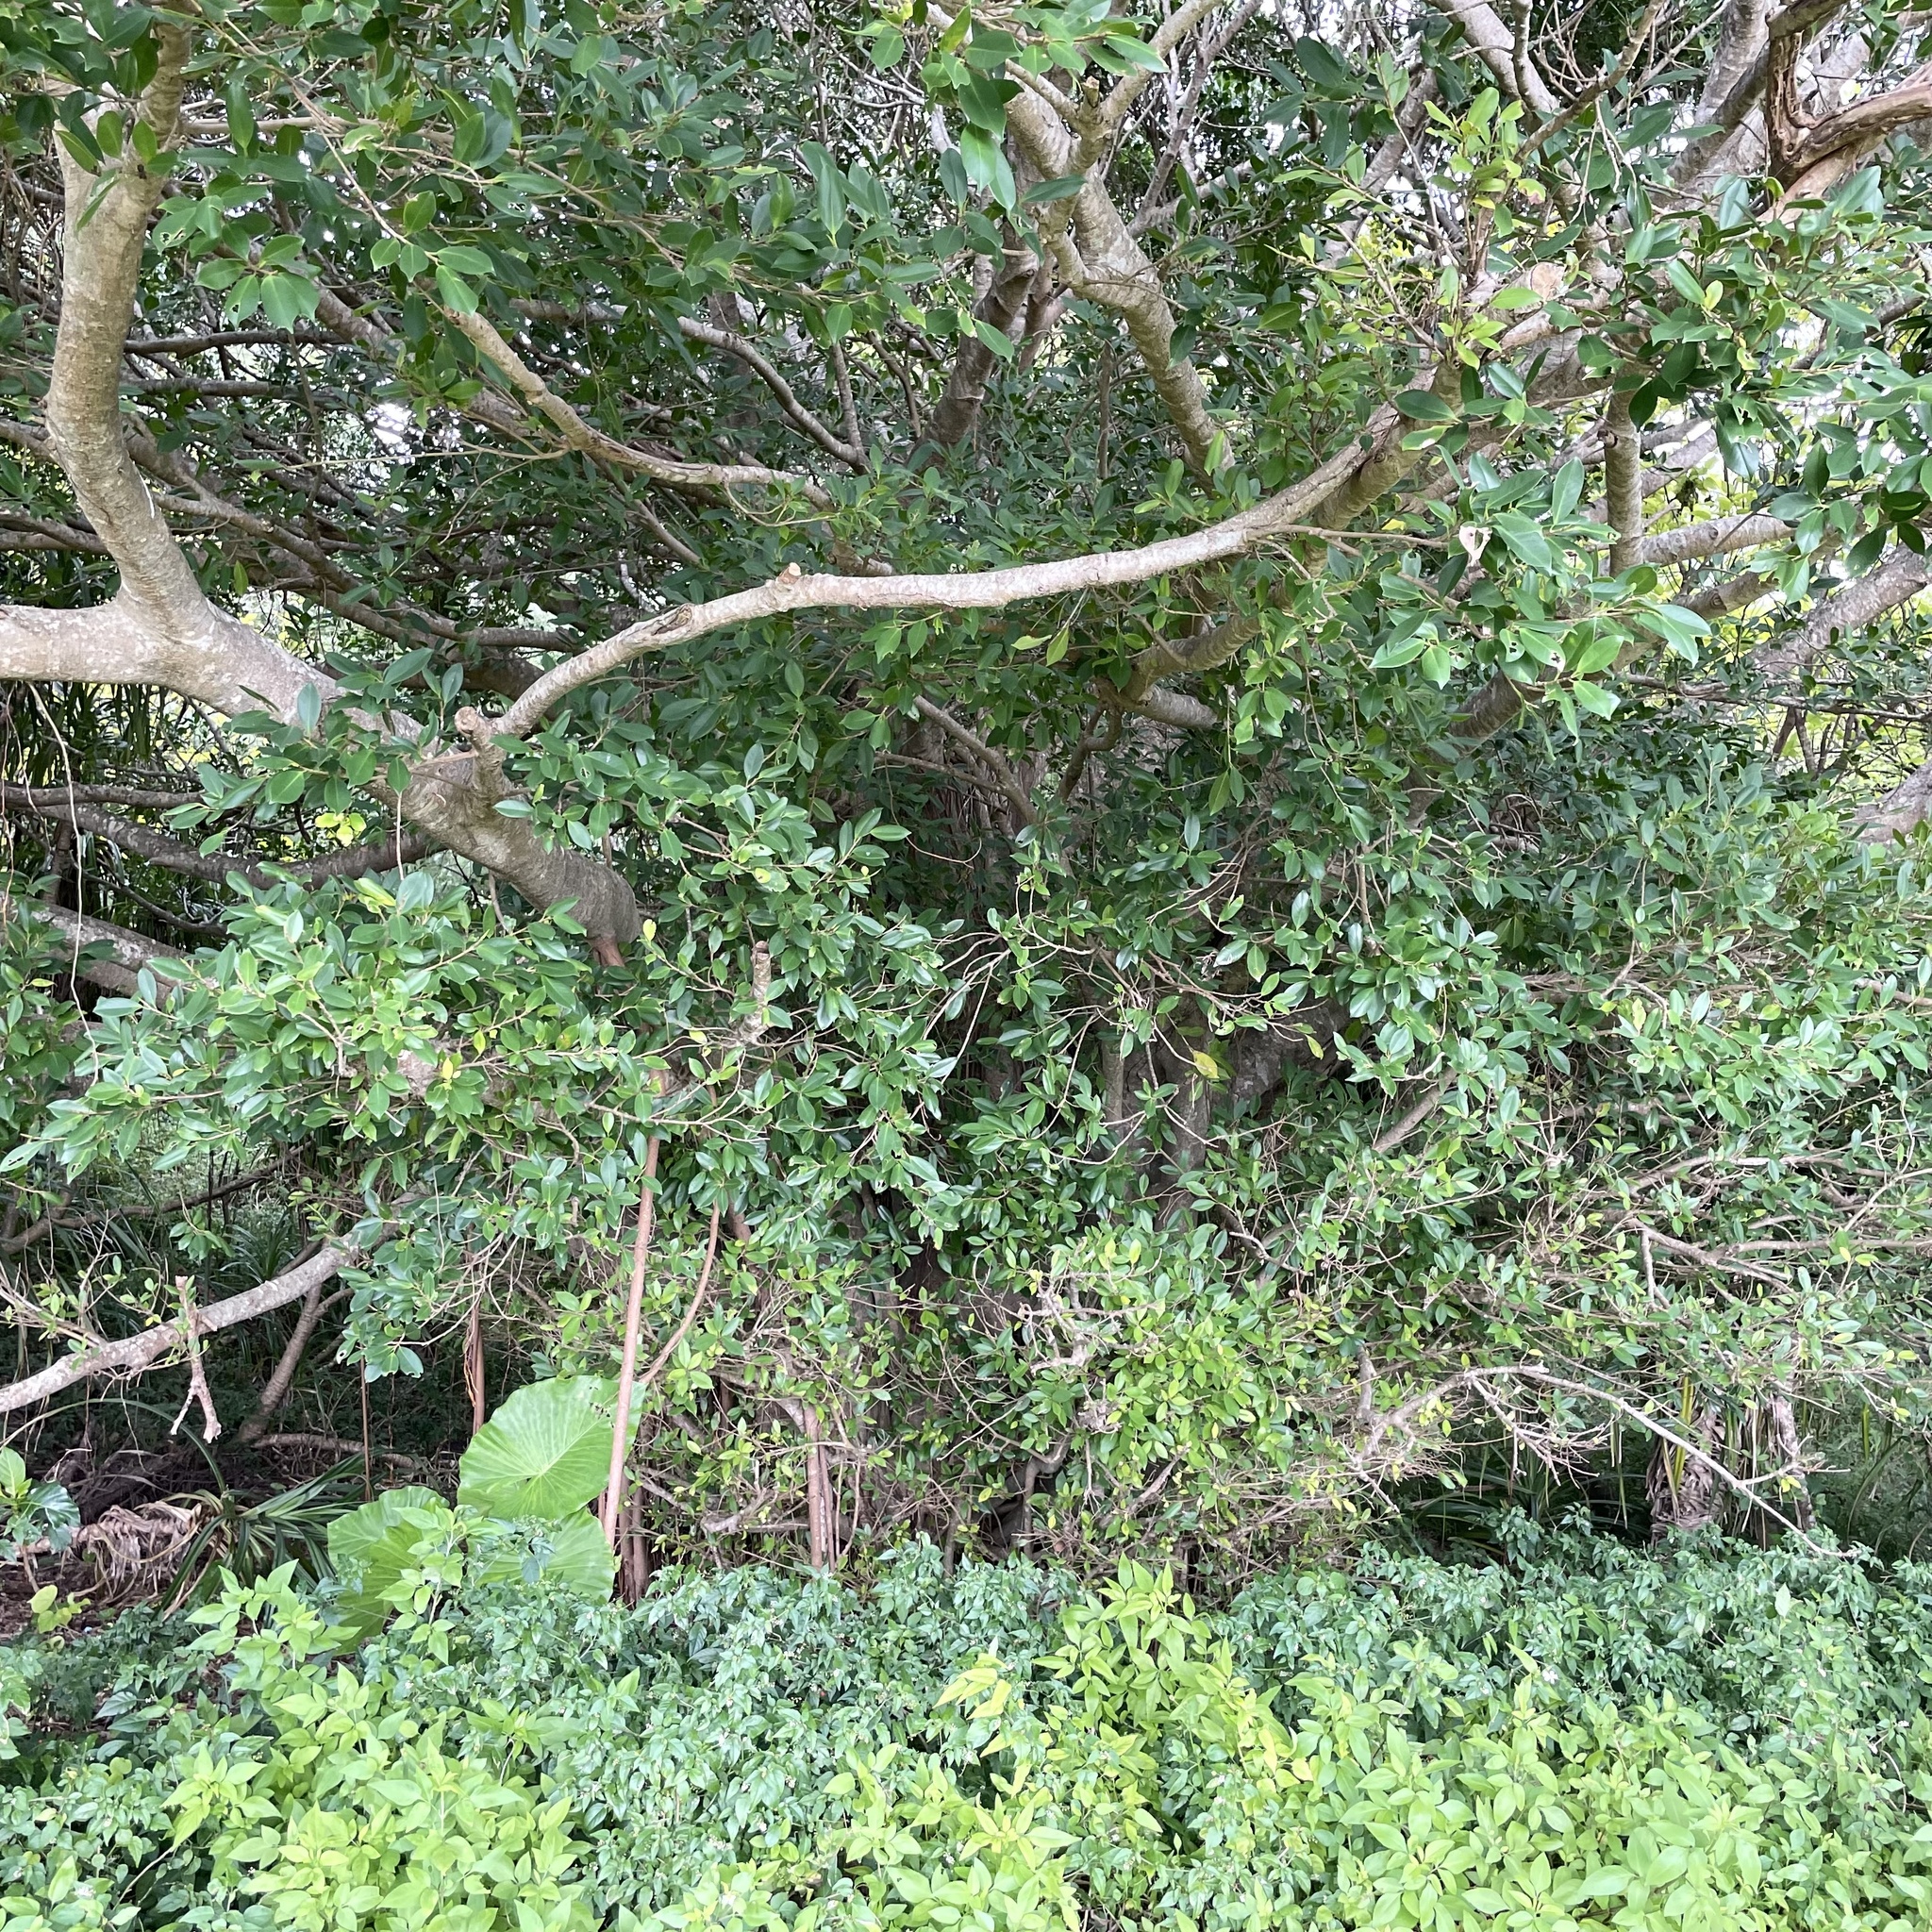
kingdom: Plantae
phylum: Tracheophyta
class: Magnoliopsida
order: Rosales
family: Moraceae
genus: Ficus
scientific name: Ficus microcarpa
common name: Chinese banyan
